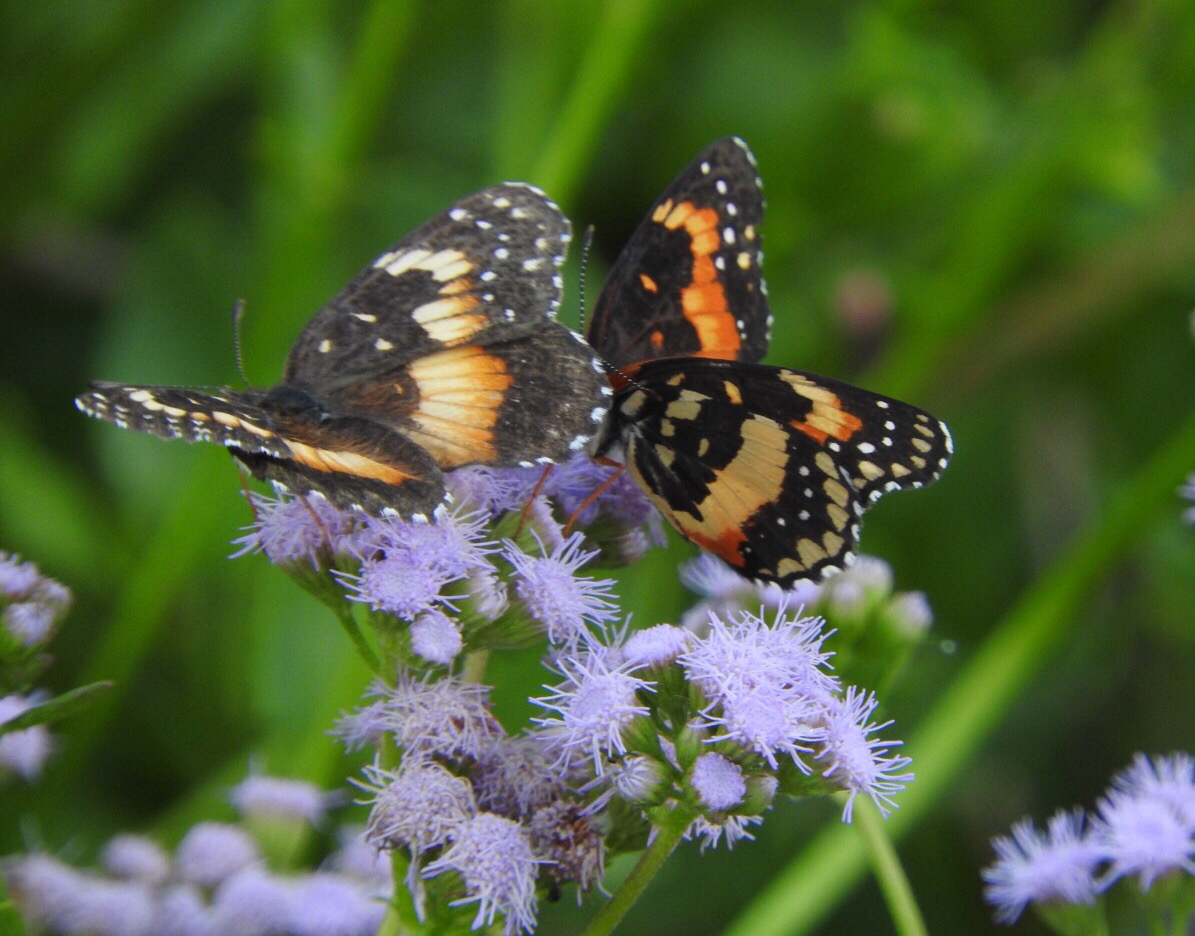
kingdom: Animalia
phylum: Arthropoda
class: Insecta
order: Lepidoptera
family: Nymphalidae
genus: Chlosyne
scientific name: Chlosyne lacinia
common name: Bordered patch
